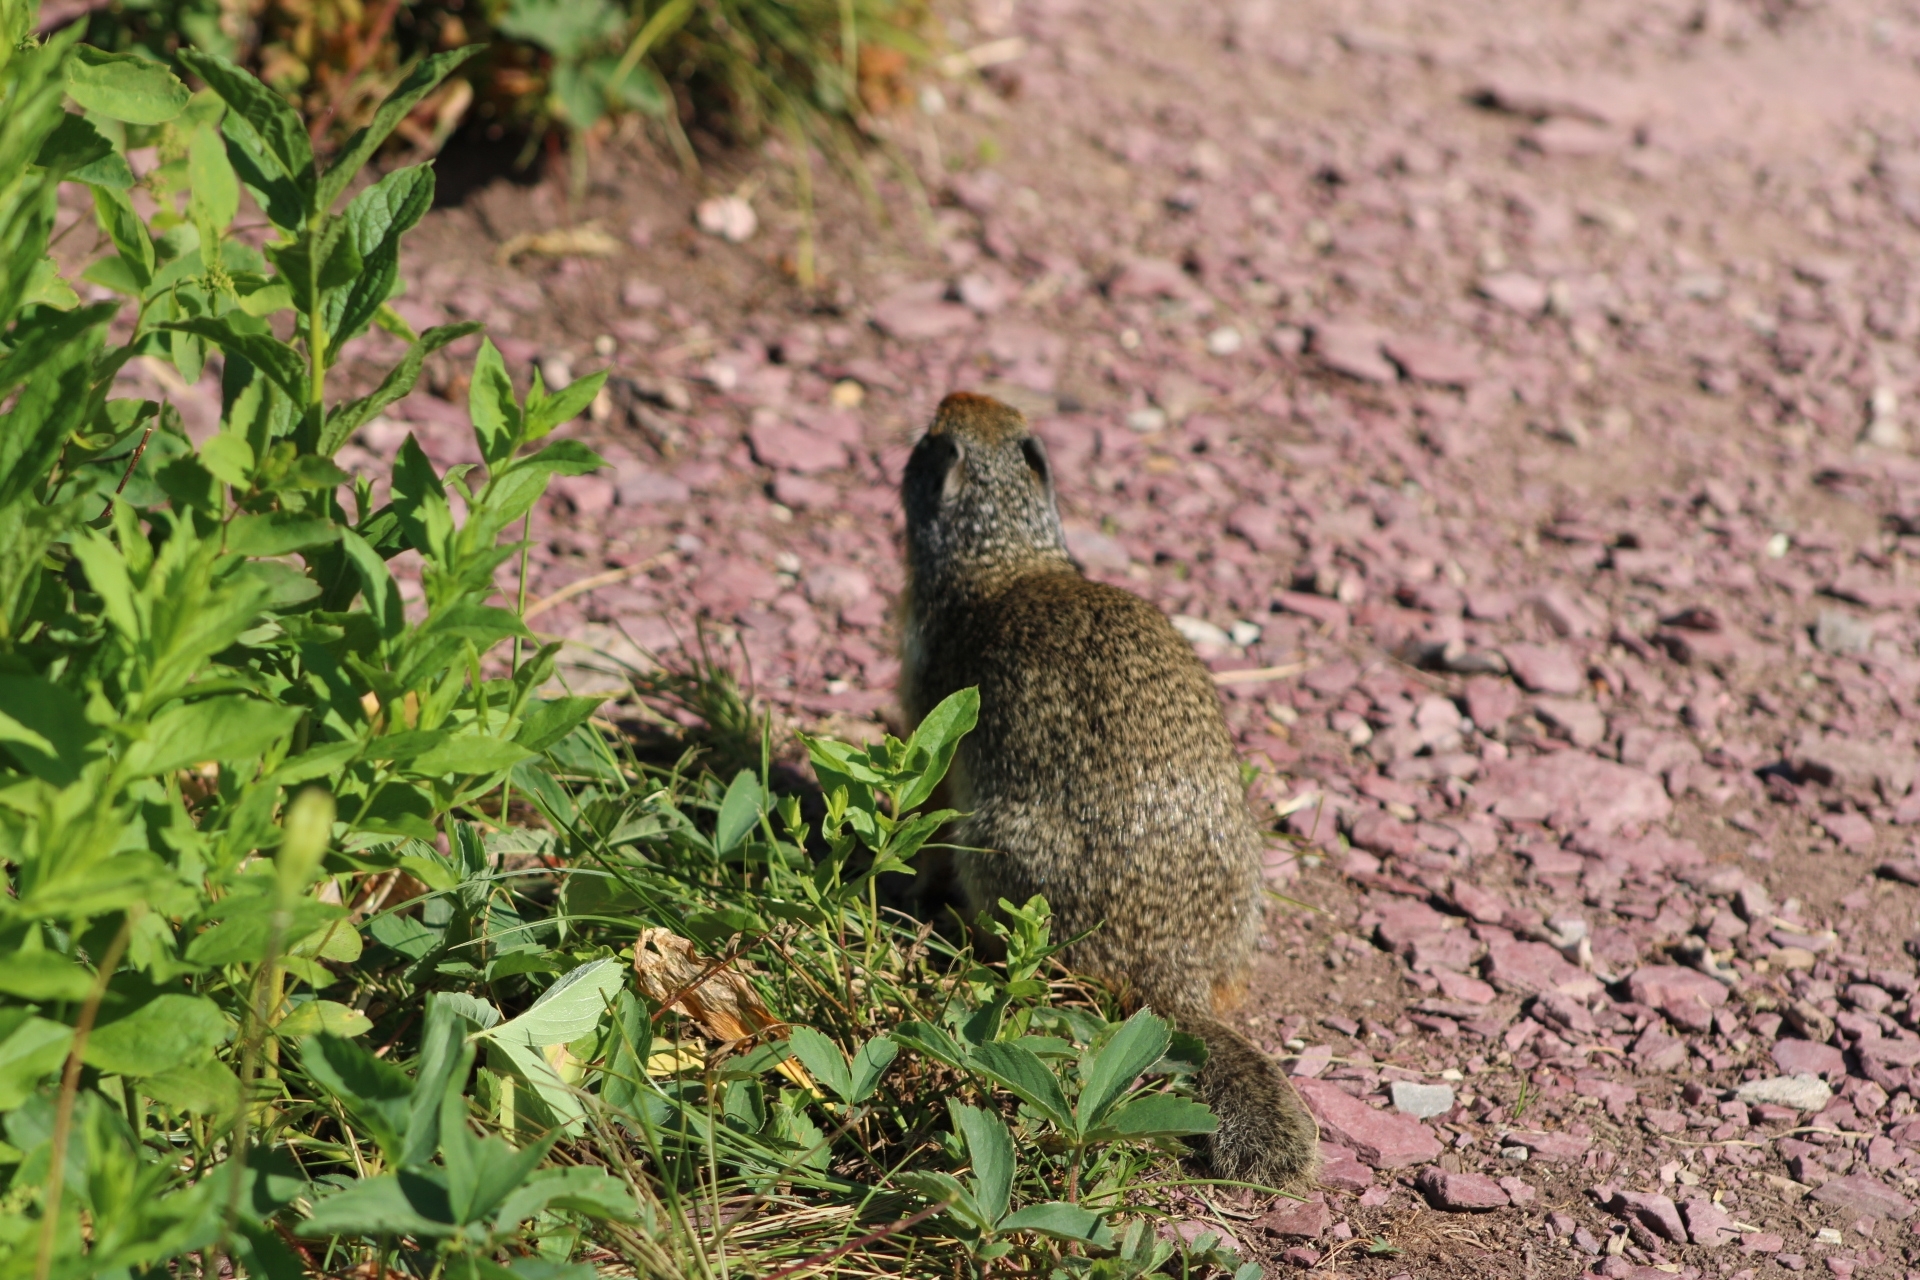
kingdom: Animalia
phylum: Chordata
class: Mammalia
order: Rodentia
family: Sciuridae
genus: Urocitellus
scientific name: Urocitellus columbianus
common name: Columbian ground squirrel
